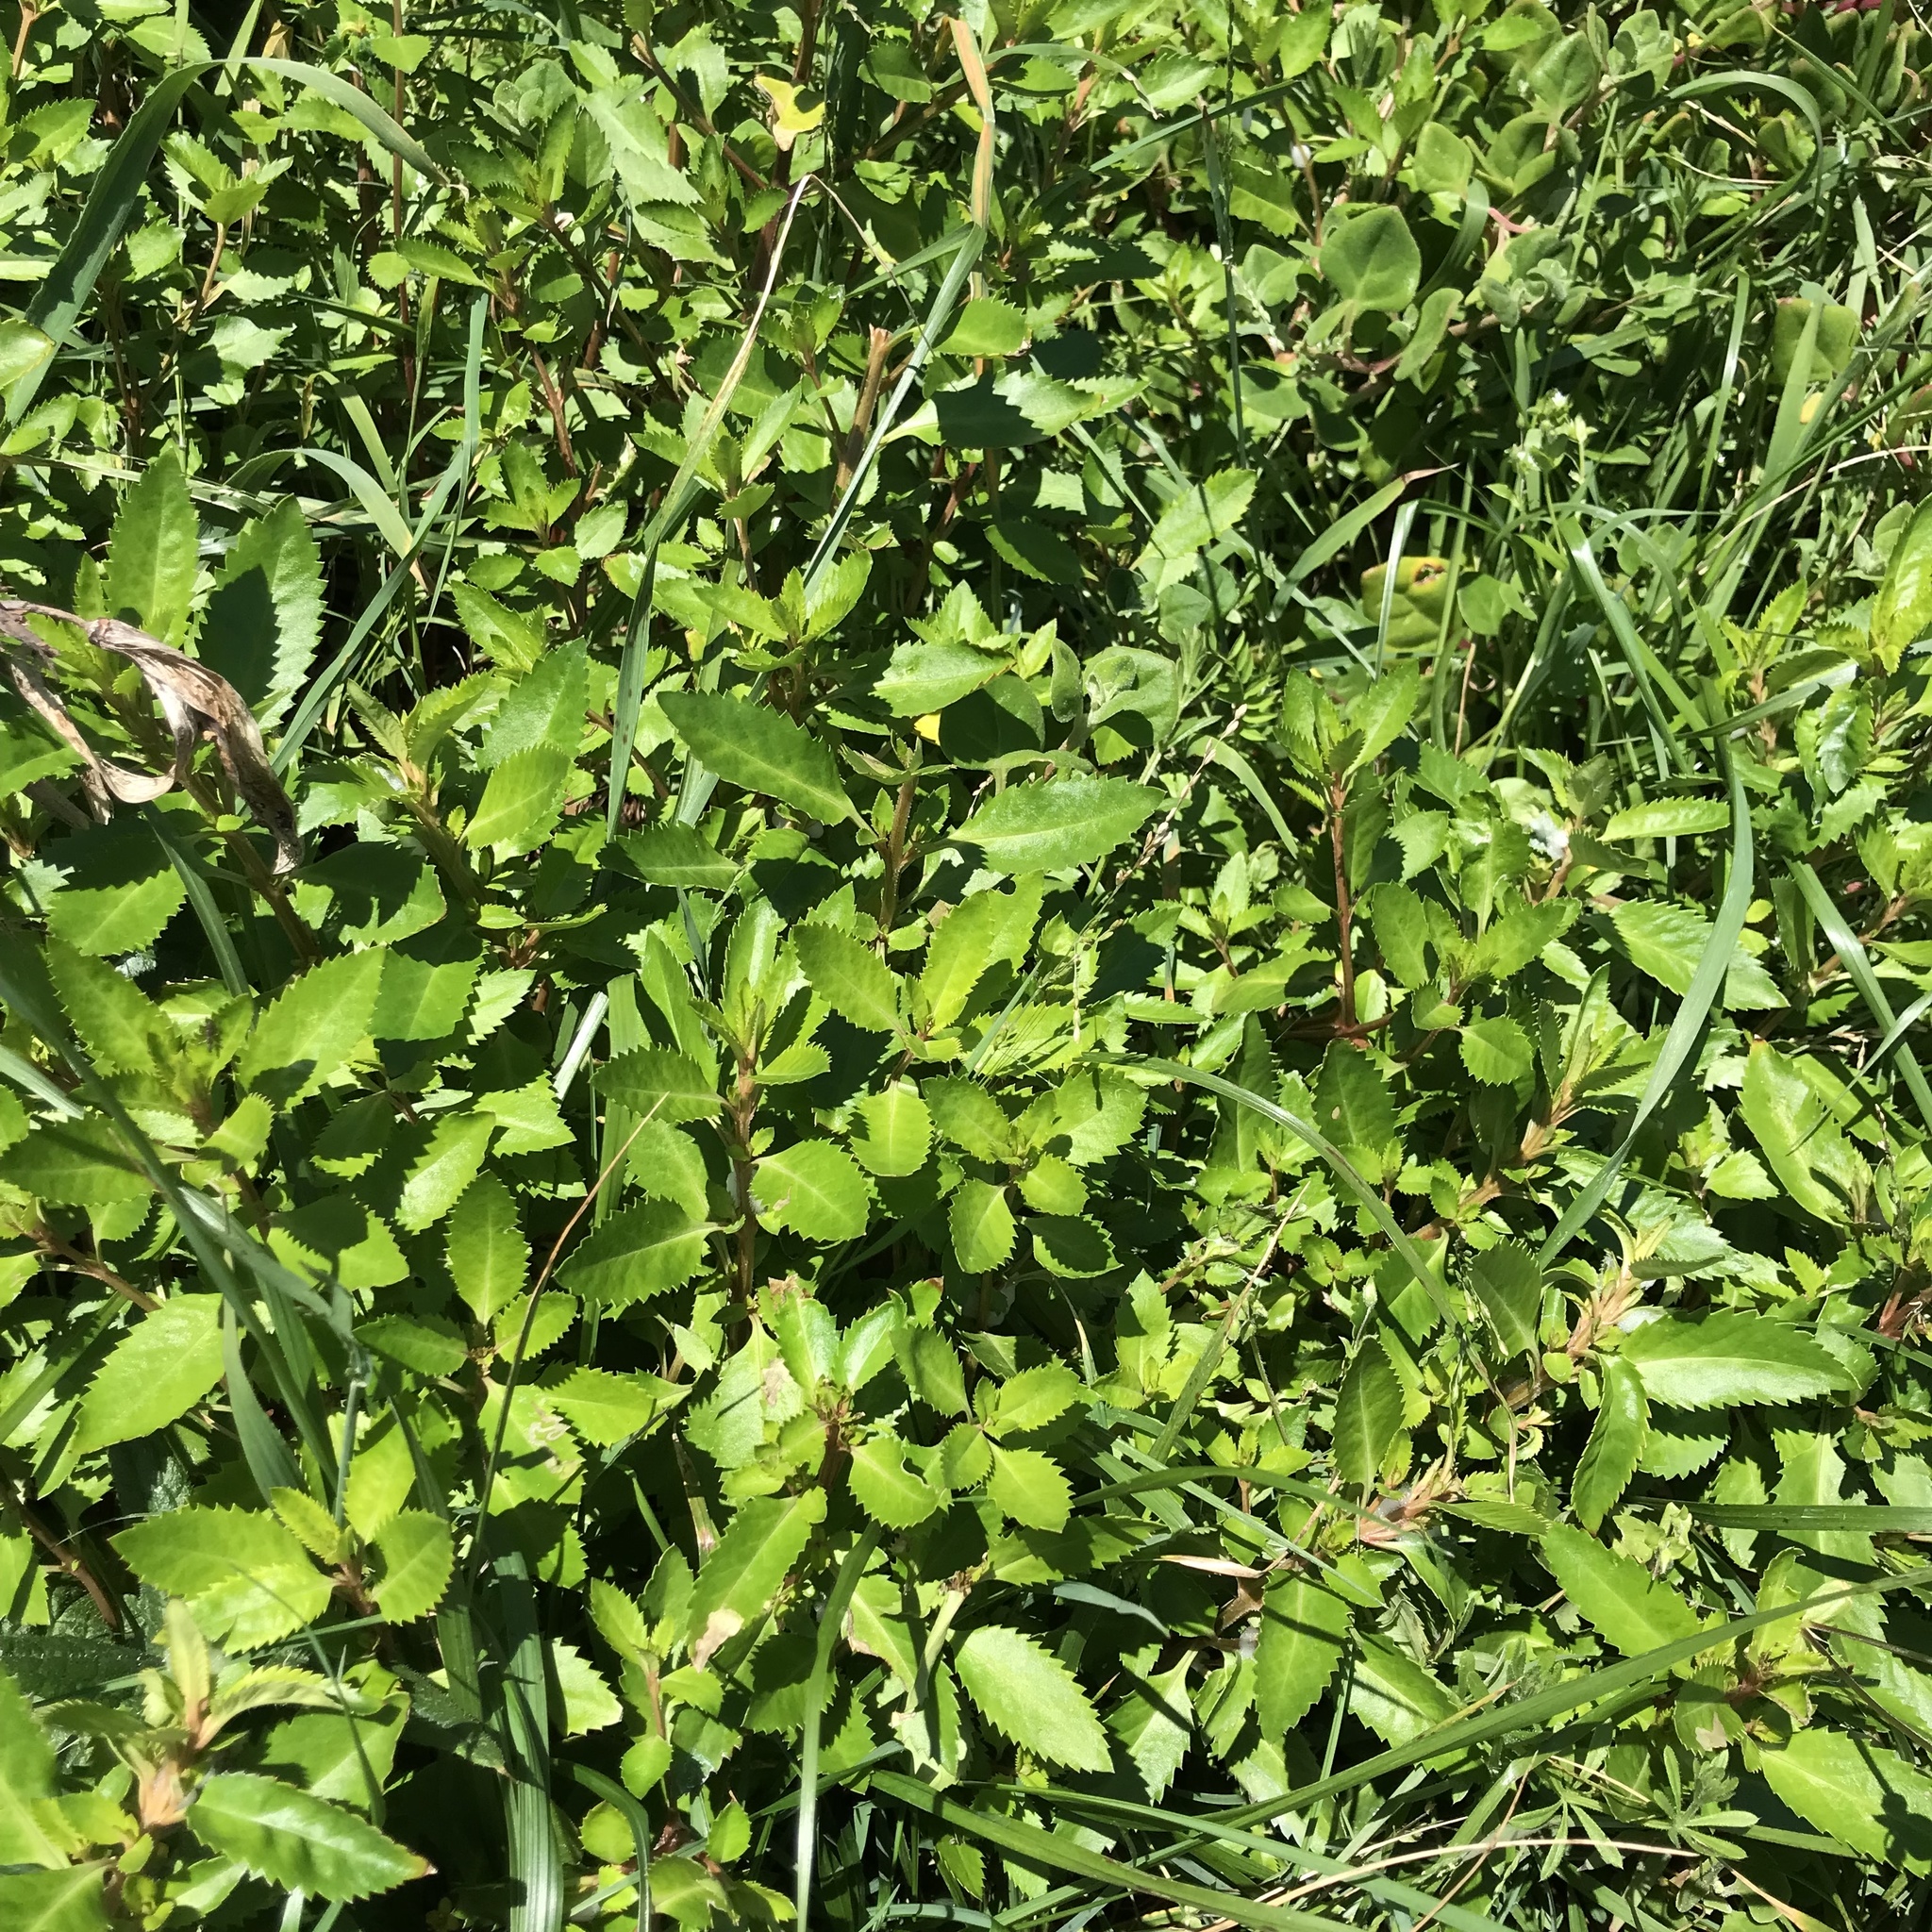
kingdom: Plantae
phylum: Tracheophyta
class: Magnoliopsida
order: Saxifragales
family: Haloragaceae
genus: Haloragis
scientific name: Haloragis erecta
